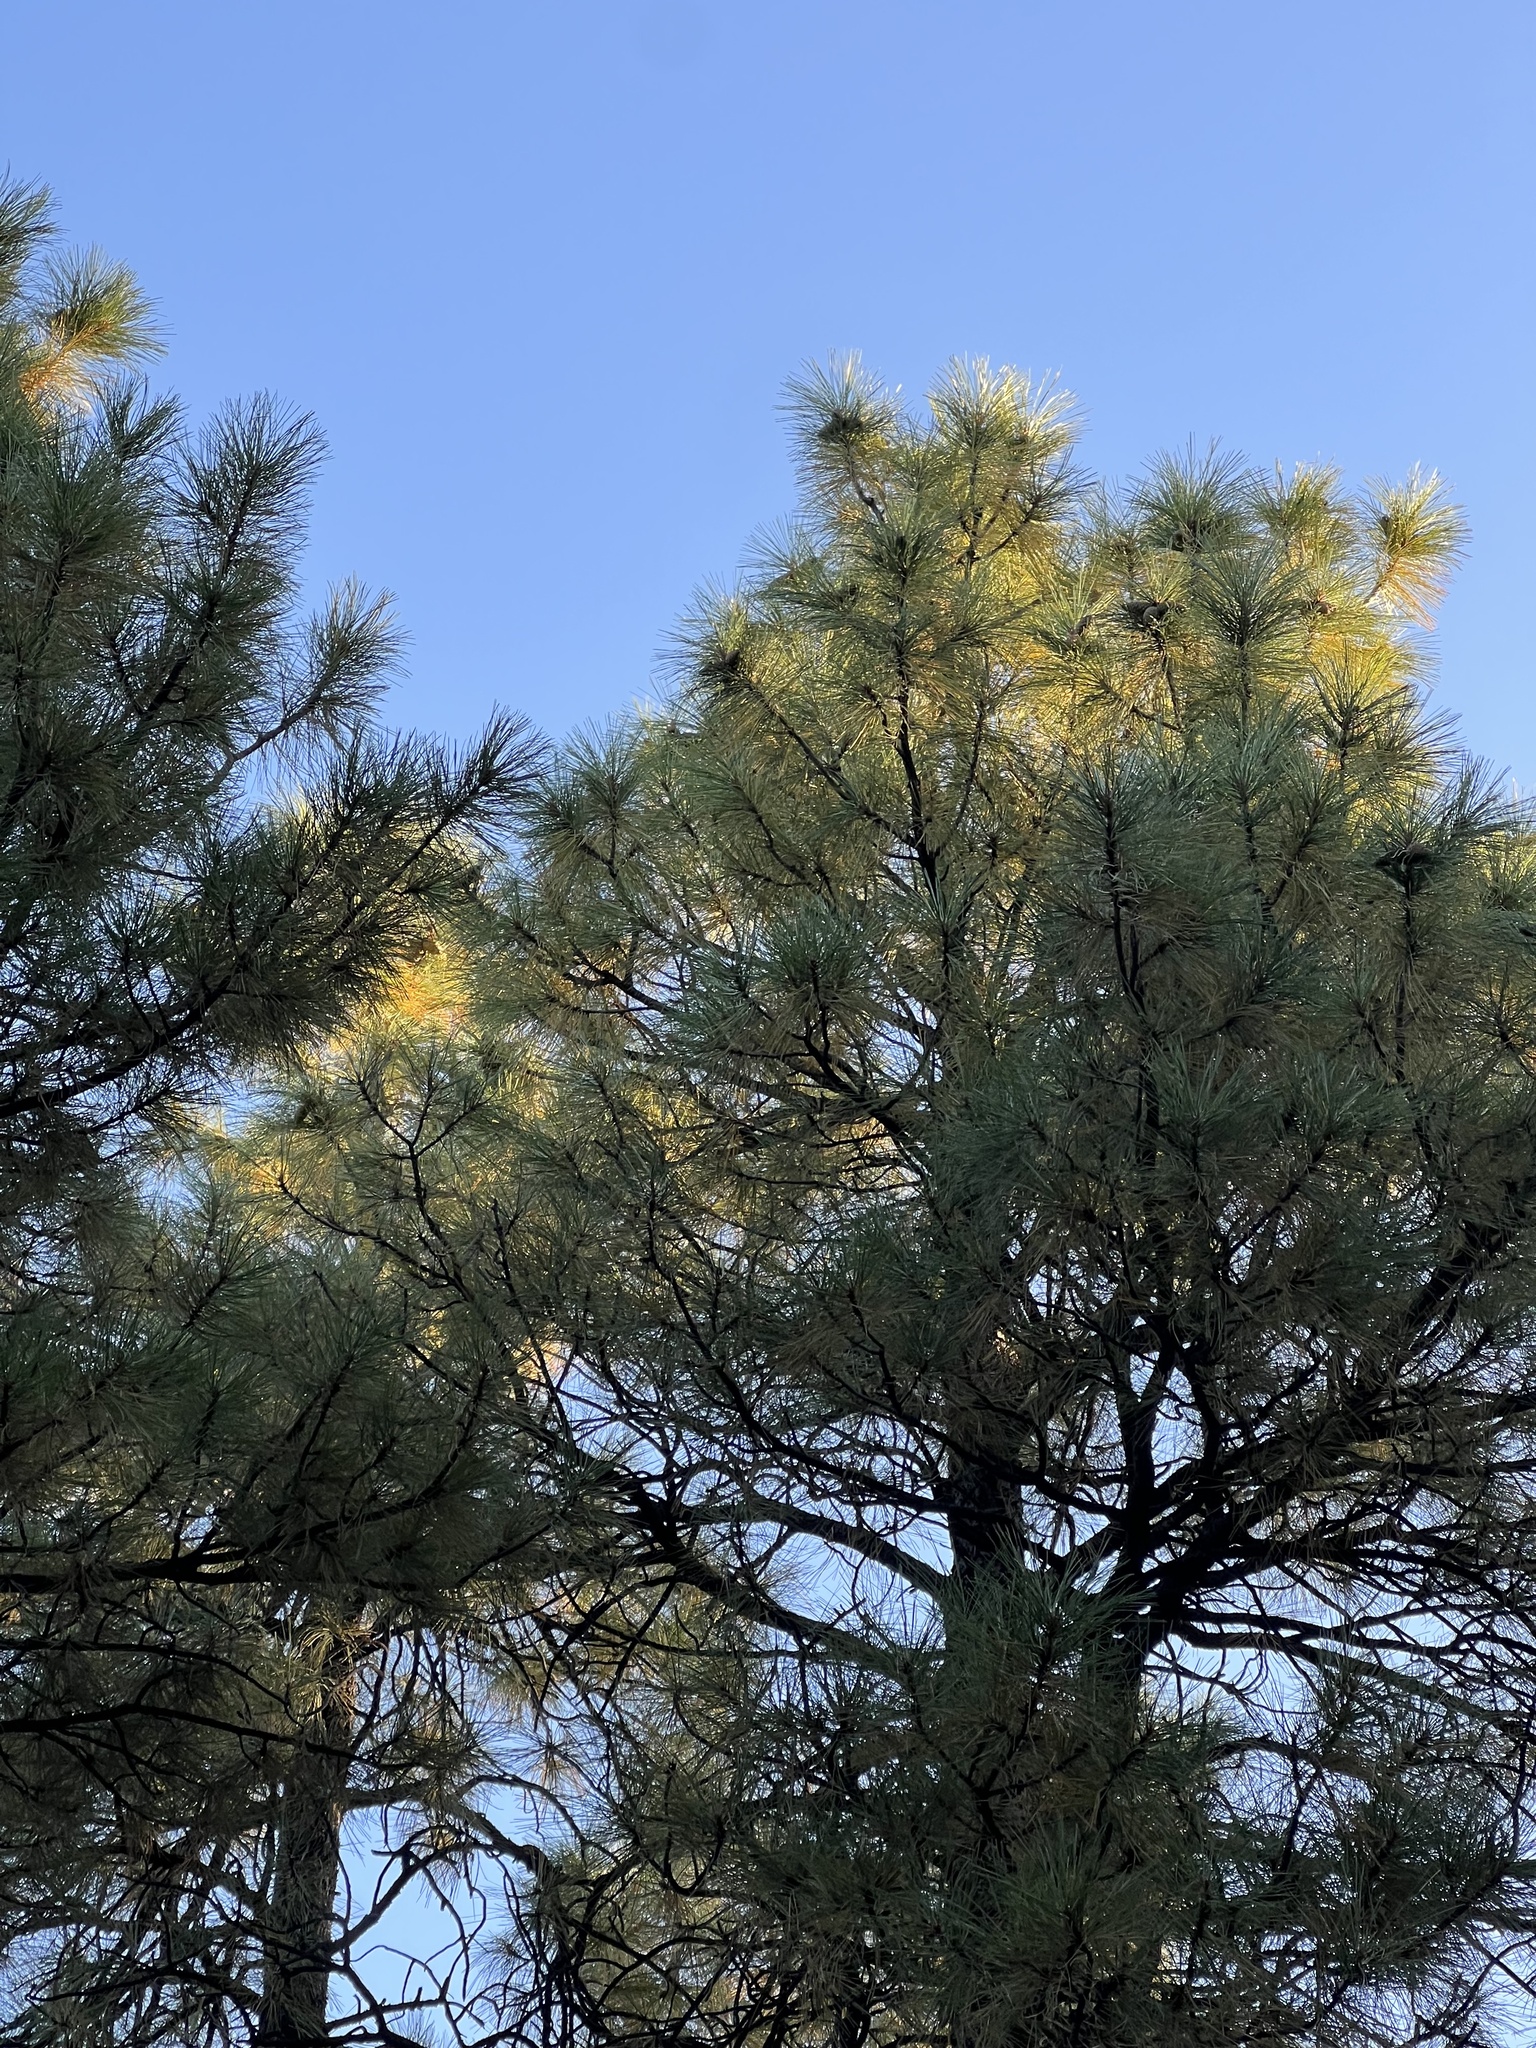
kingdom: Plantae
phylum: Tracheophyta
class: Pinopsida
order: Pinales
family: Pinaceae
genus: Pinus
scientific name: Pinus ponderosa
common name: Western yellow-pine
